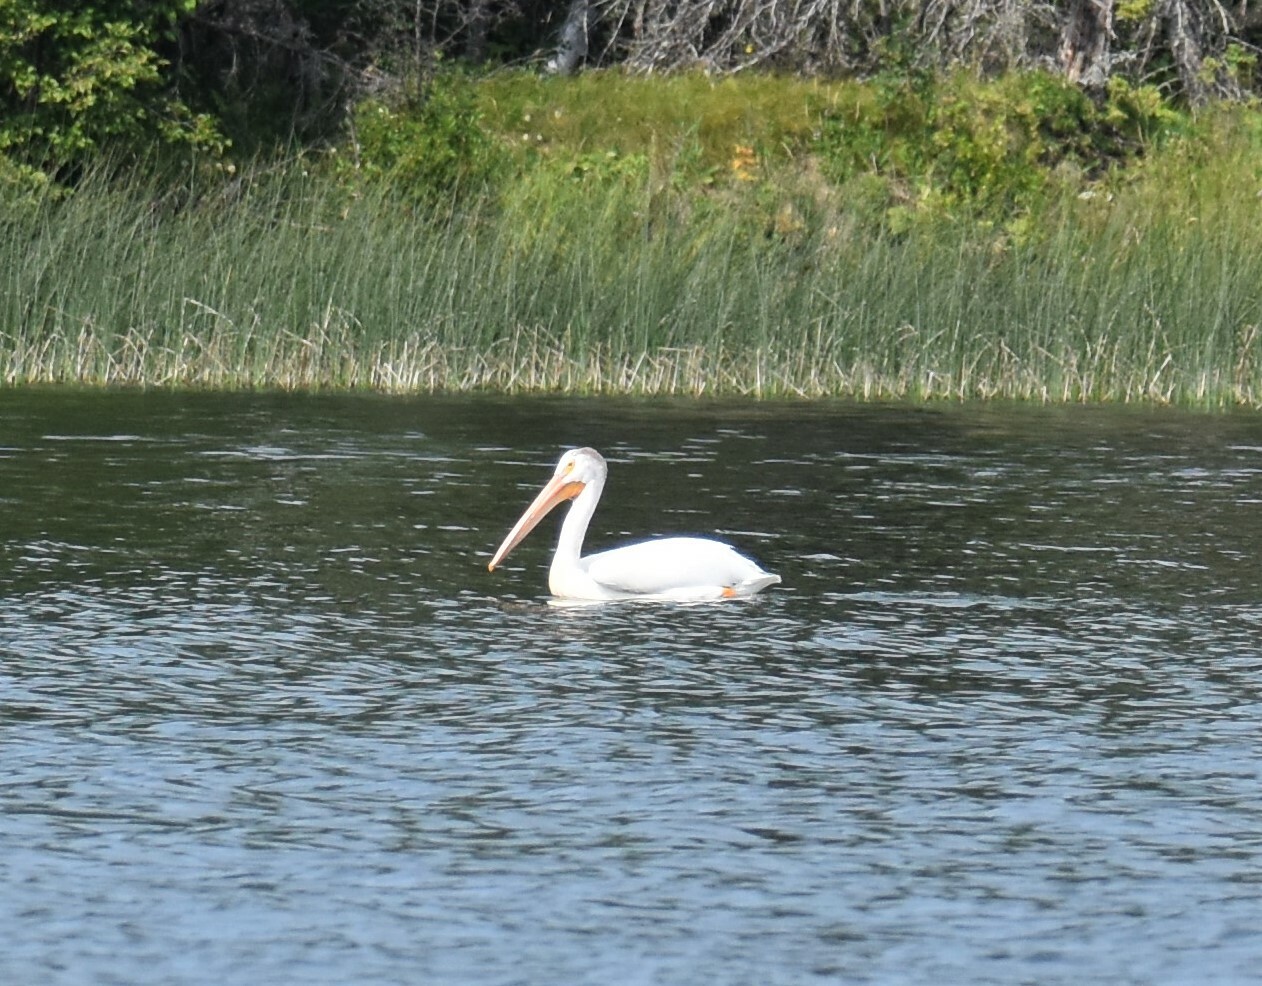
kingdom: Animalia
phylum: Chordata
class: Aves
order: Pelecaniformes
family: Pelecanidae
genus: Pelecanus
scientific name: Pelecanus erythrorhynchos
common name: American white pelican
